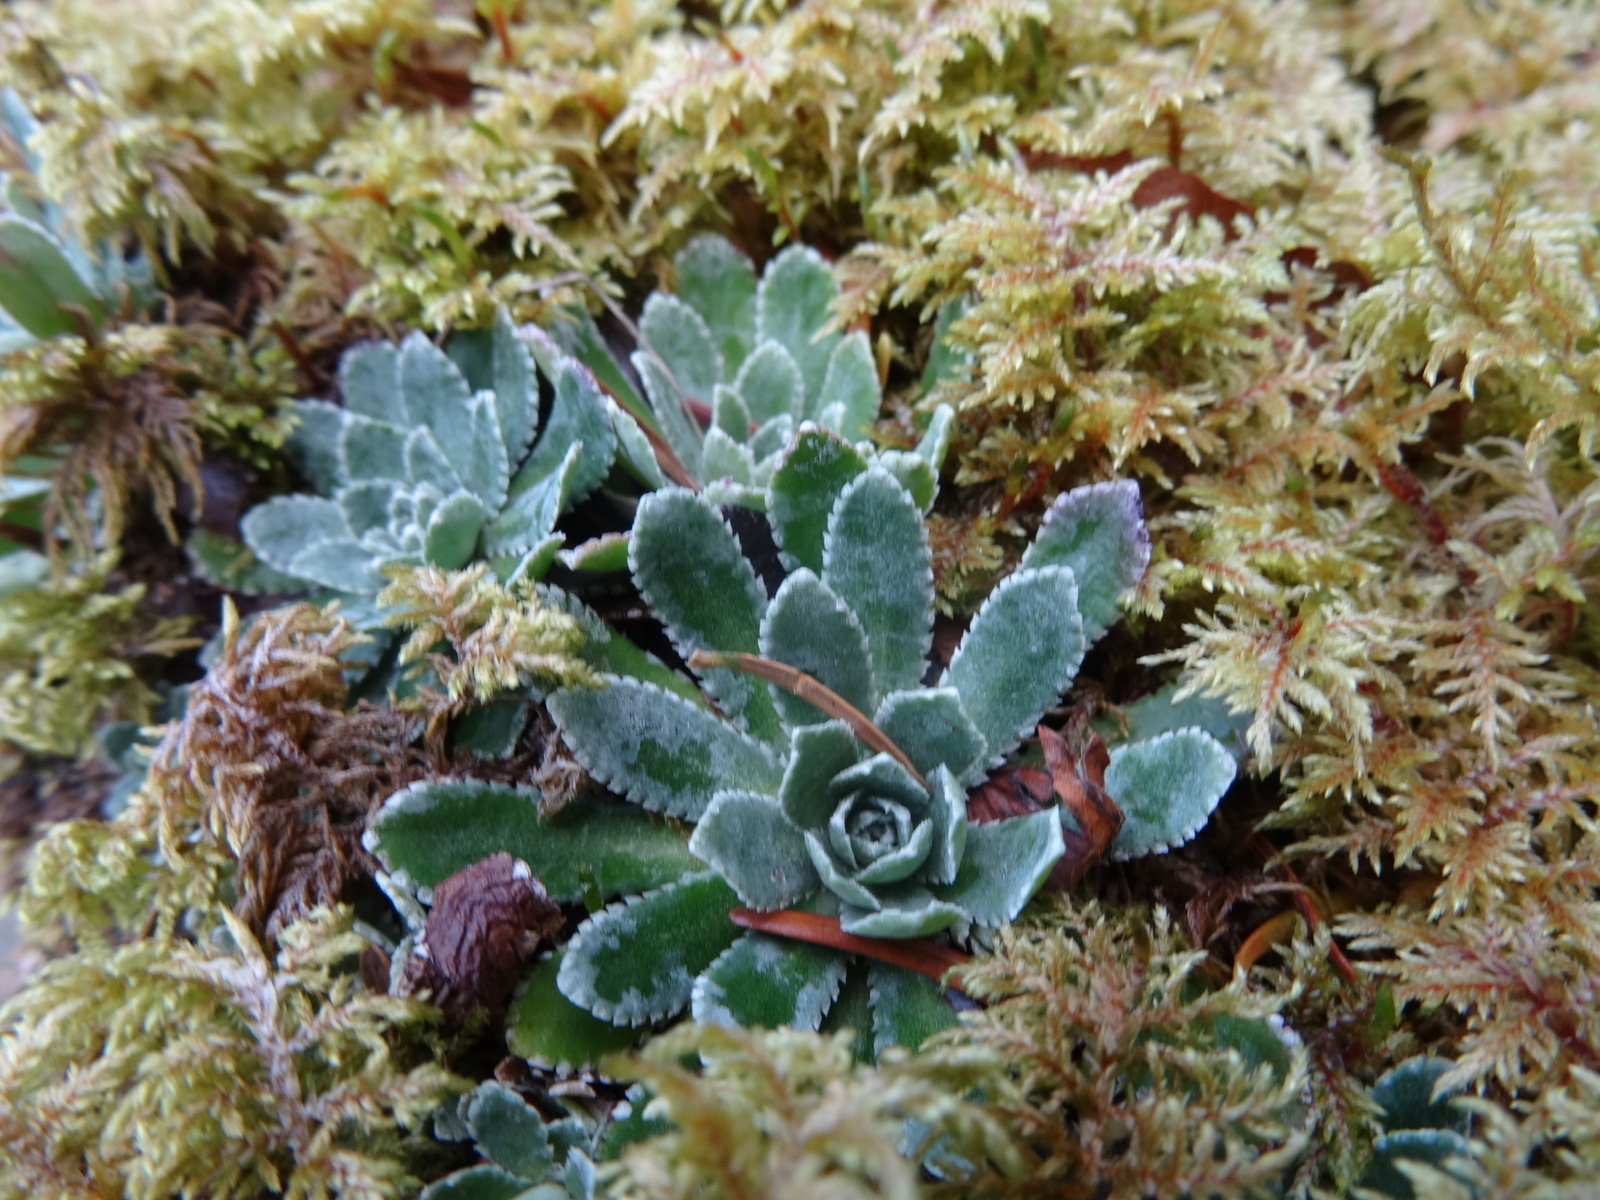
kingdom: Plantae
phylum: Tracheophyta
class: Magnoliopsida
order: Saxifragales
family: Saxifragaceae
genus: Saxifraga
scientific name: Saxifraga paniculata
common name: Livelong saxifrage
